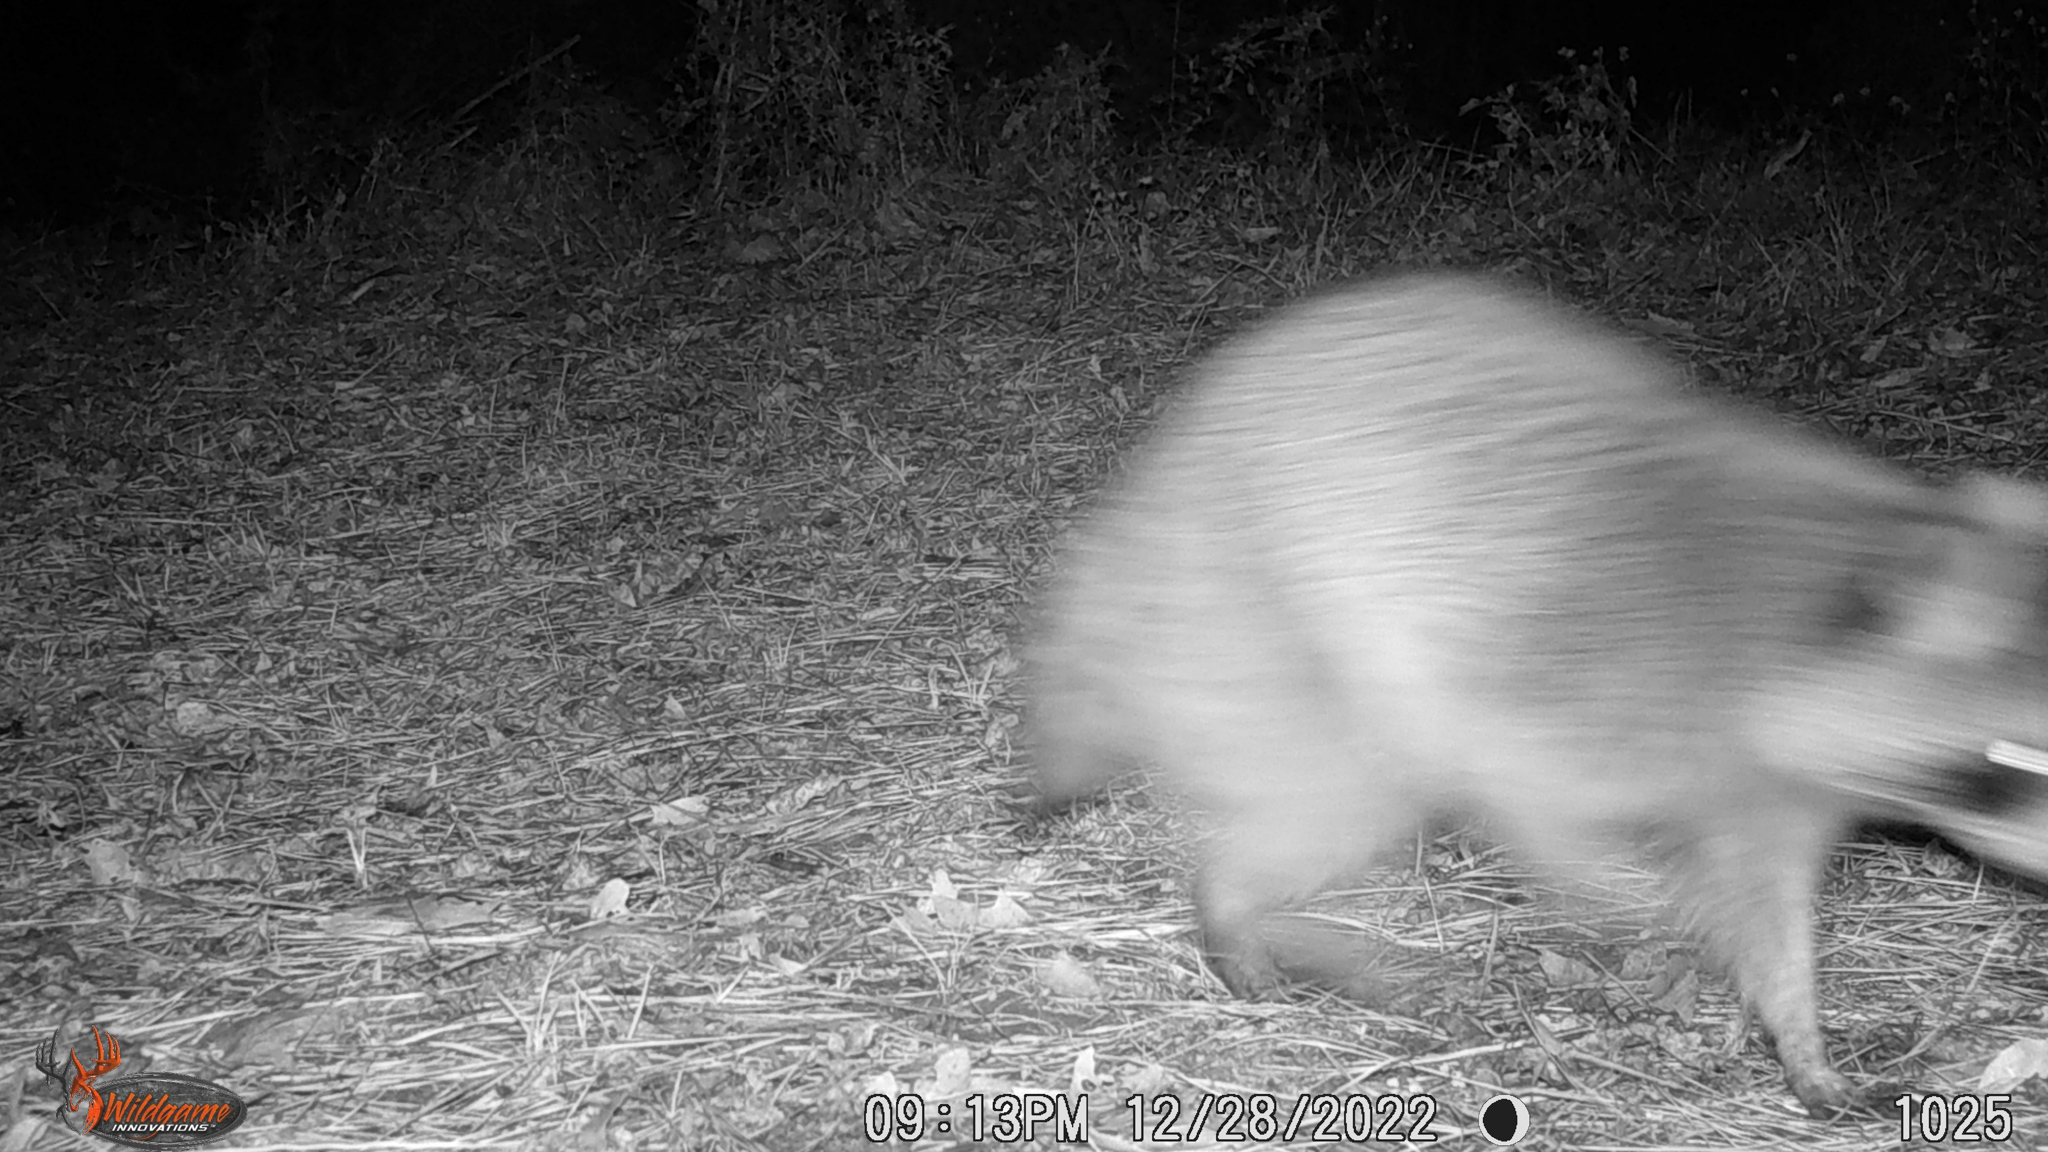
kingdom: Animalia
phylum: Chordata
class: Mammalia
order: Carnivora
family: Procyonidae
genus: Procyon
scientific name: Procyon lotor
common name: Raccoon
